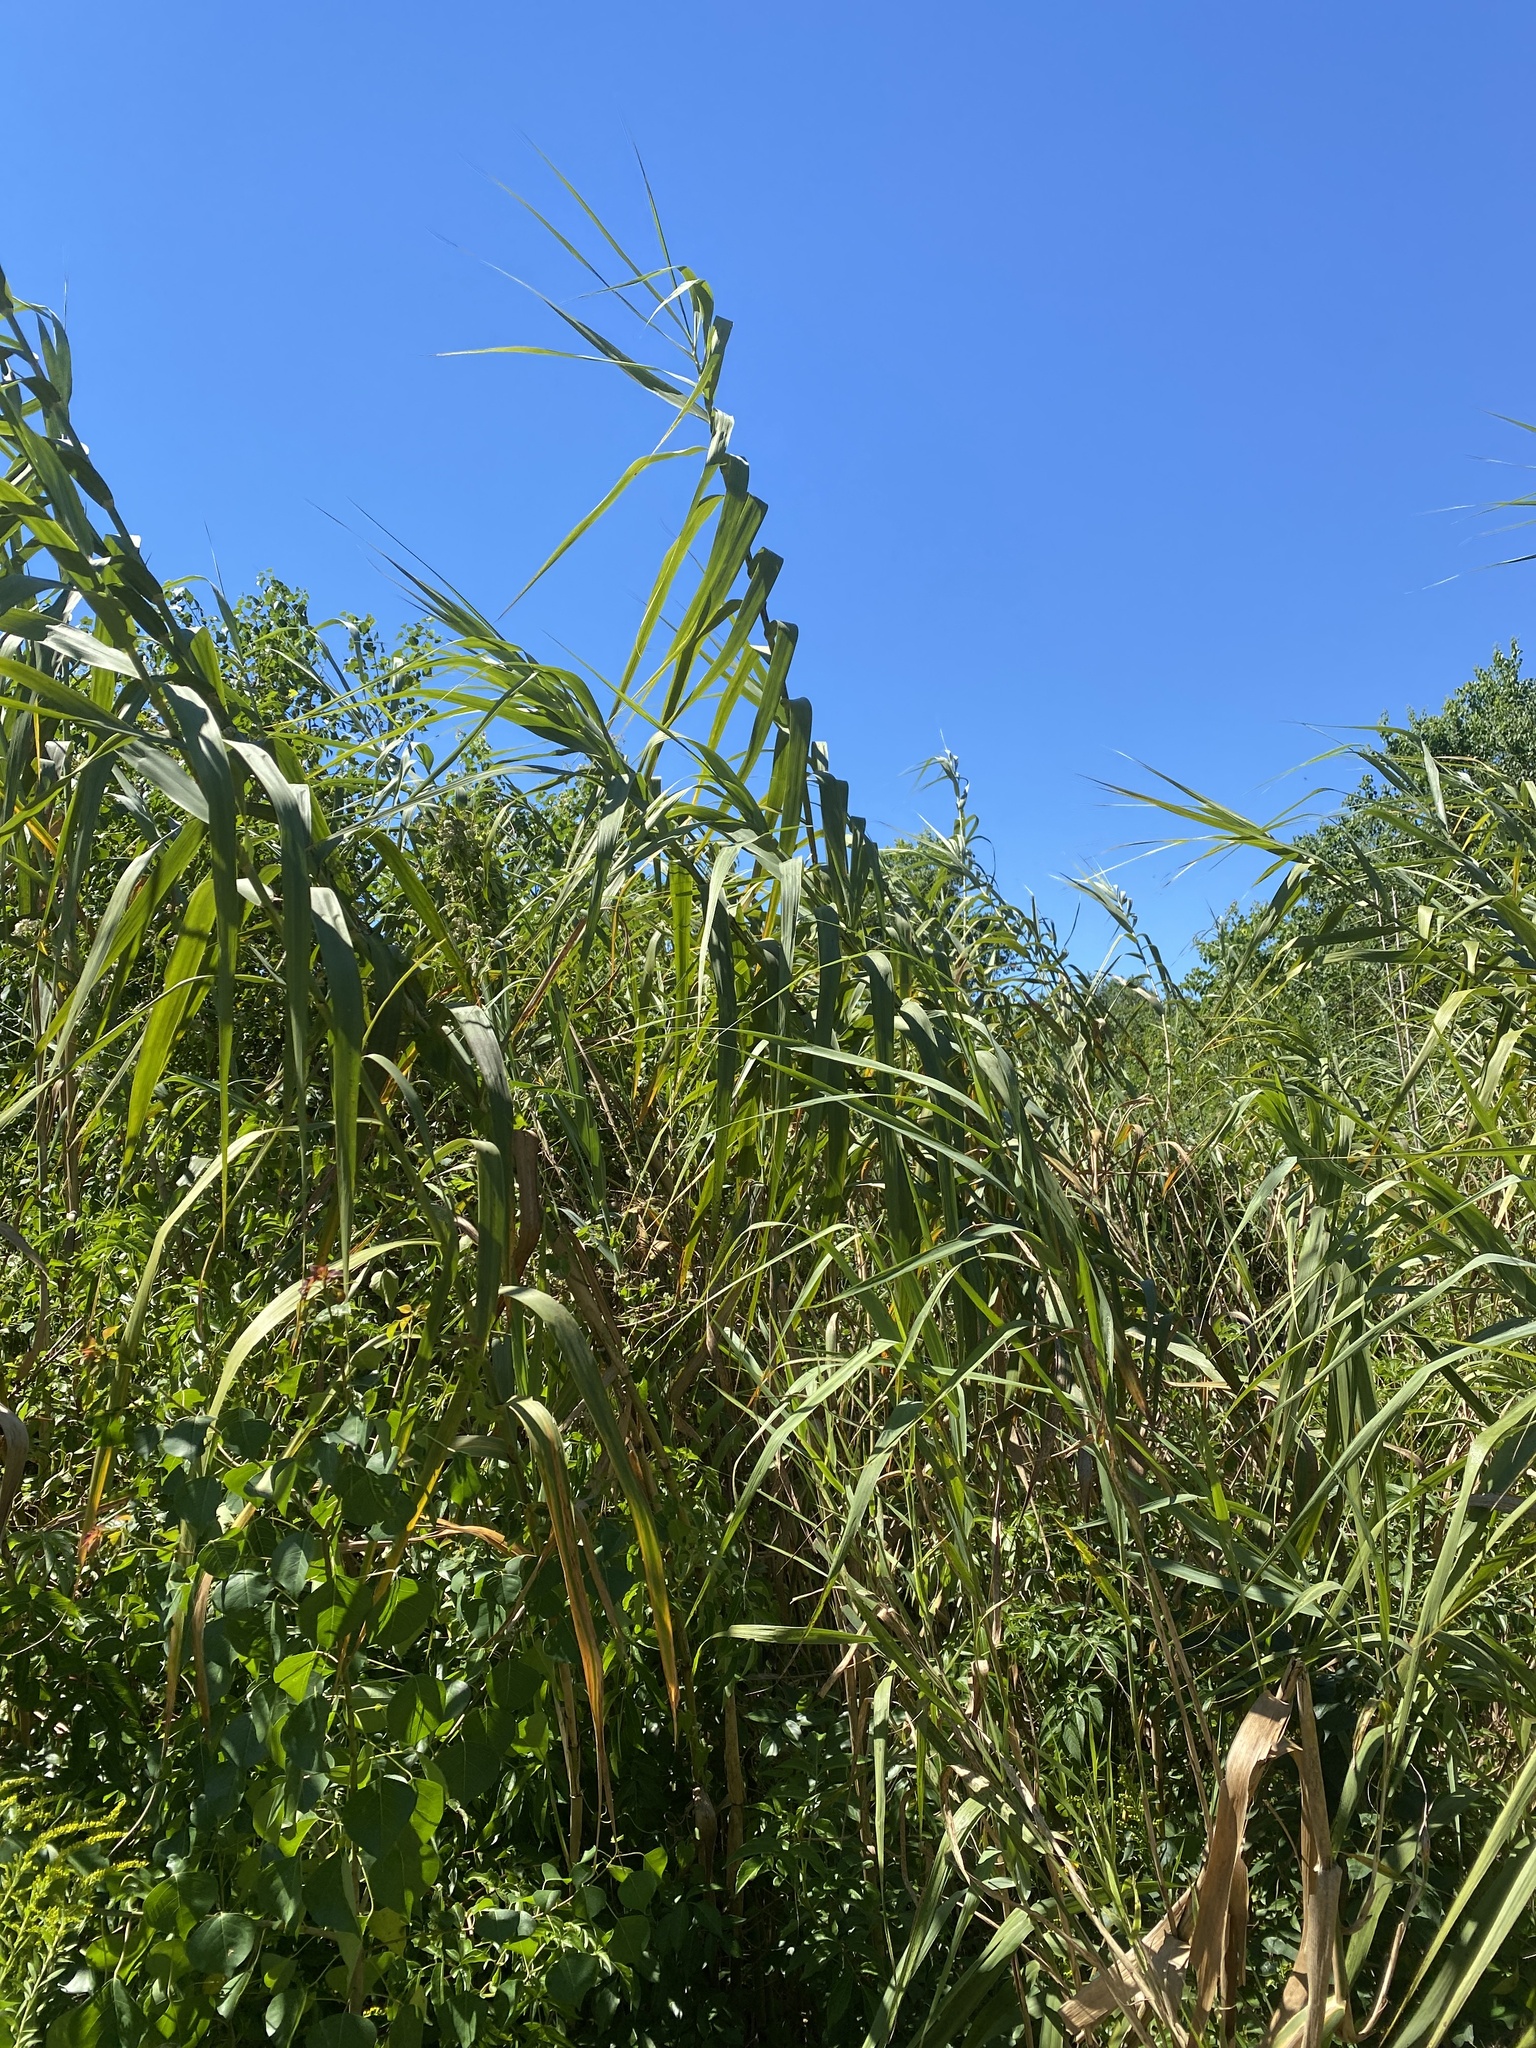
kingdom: Plantae
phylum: Tracheophyta
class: Liliopsida
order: Poales
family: Poaceae
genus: Arundo
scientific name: Arundo donax
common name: Giant reed
